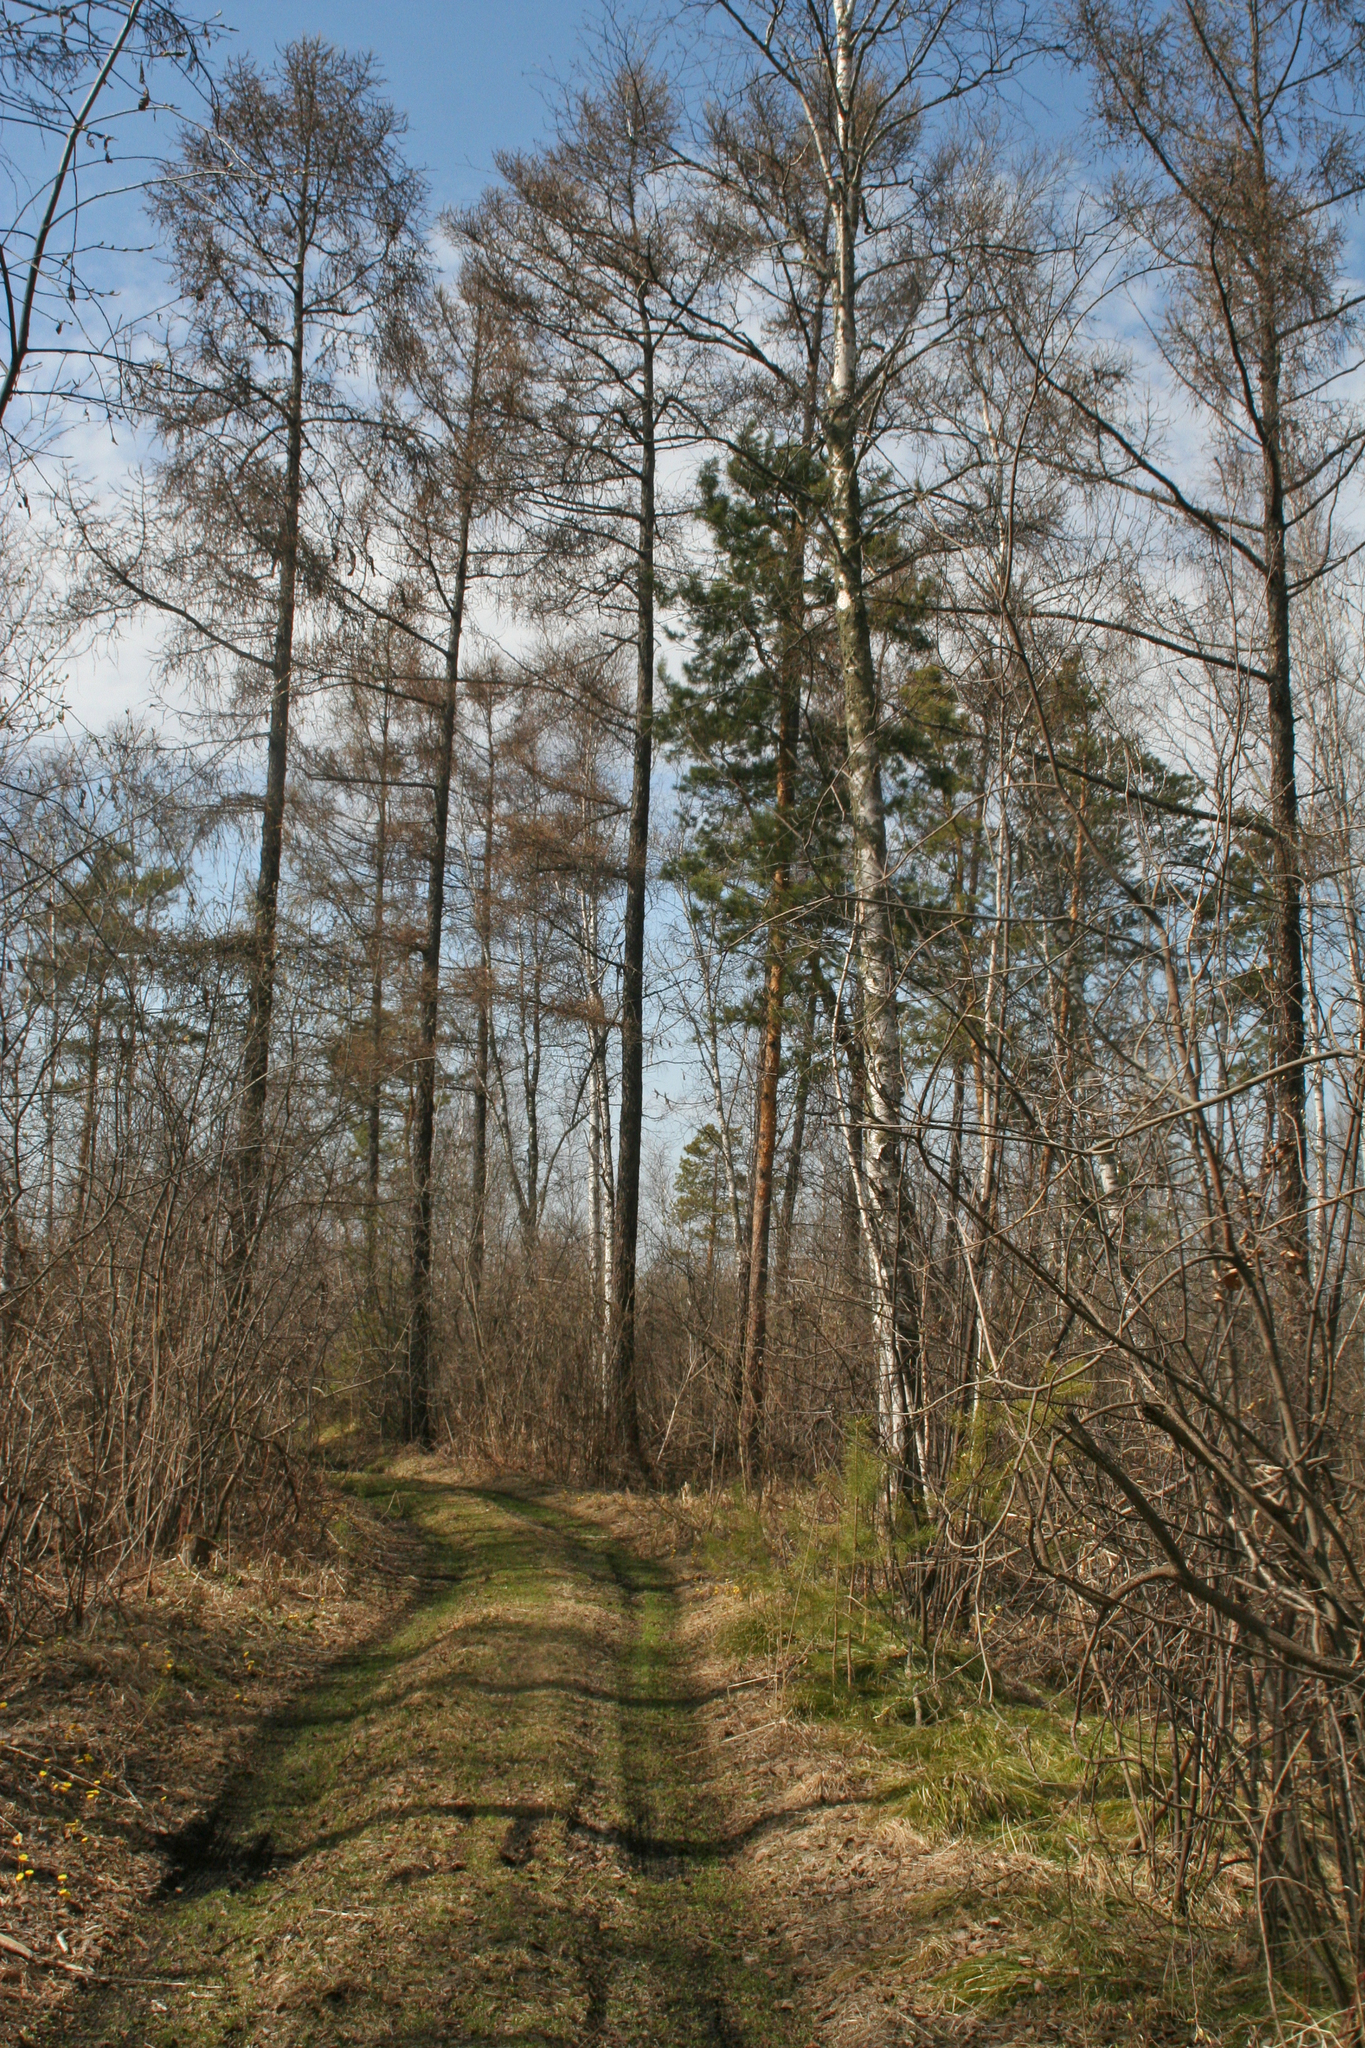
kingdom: Plantae
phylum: Tracheophyta
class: Pinopsida
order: Pinales
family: Pinaceae
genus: Larix
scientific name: Larix sibirica
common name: Siberian larch
